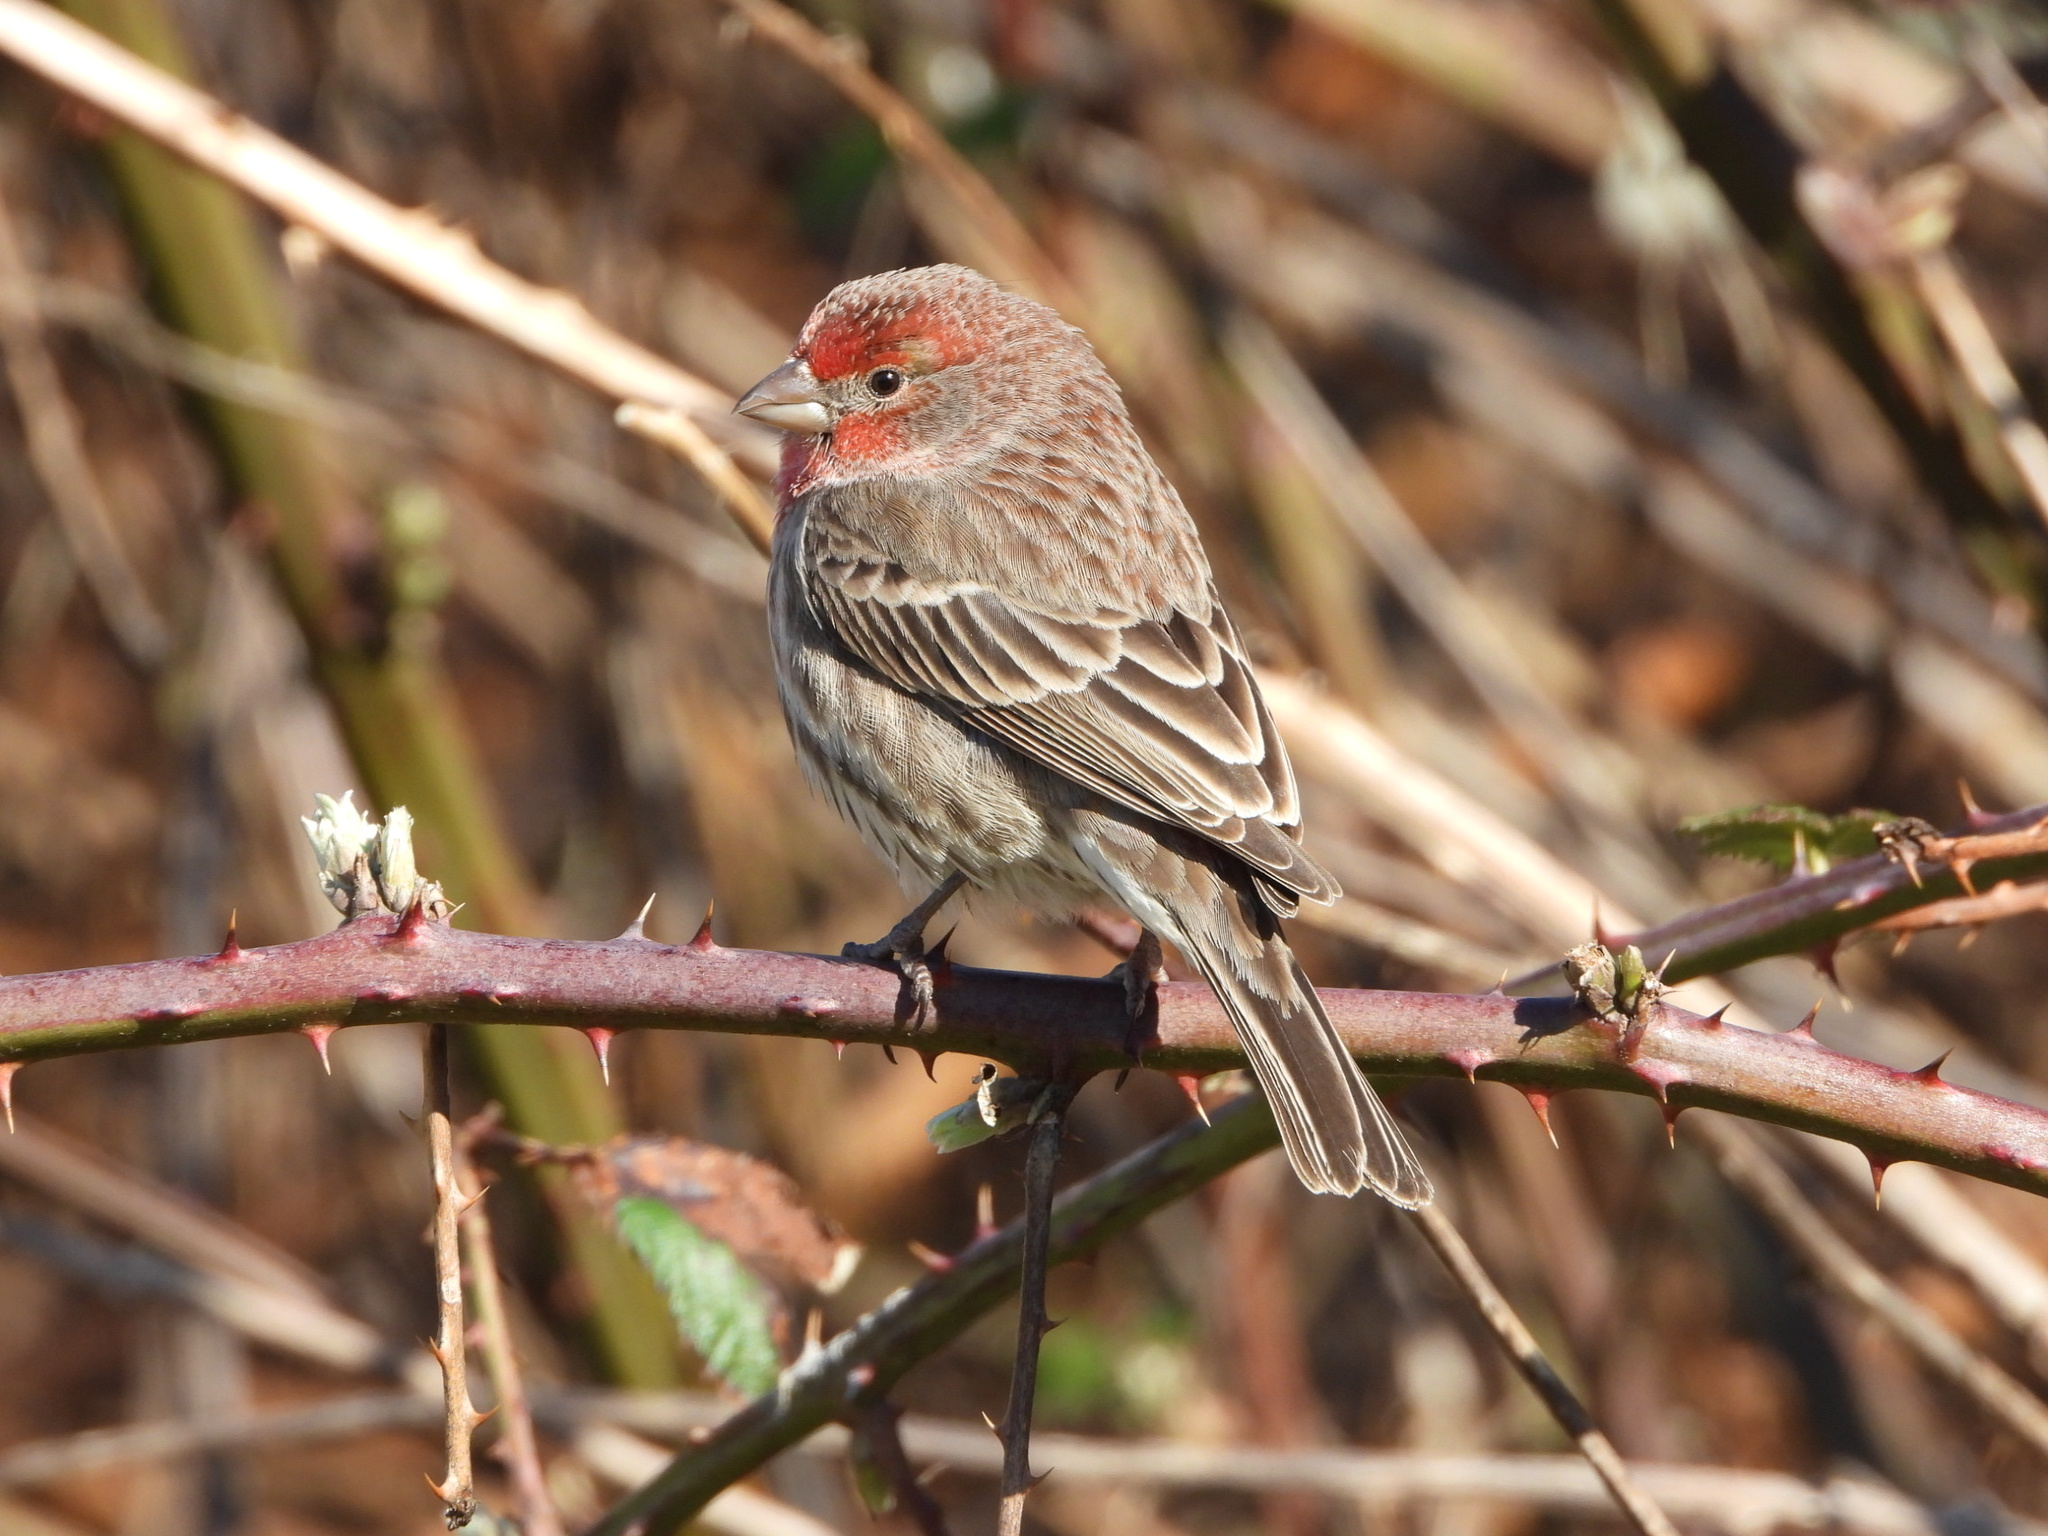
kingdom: Animalia
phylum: Chordata
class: Aves
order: Passeriformes
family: Fringillidae
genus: Haemorhous
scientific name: Haemorhous mexicanus
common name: House finch
